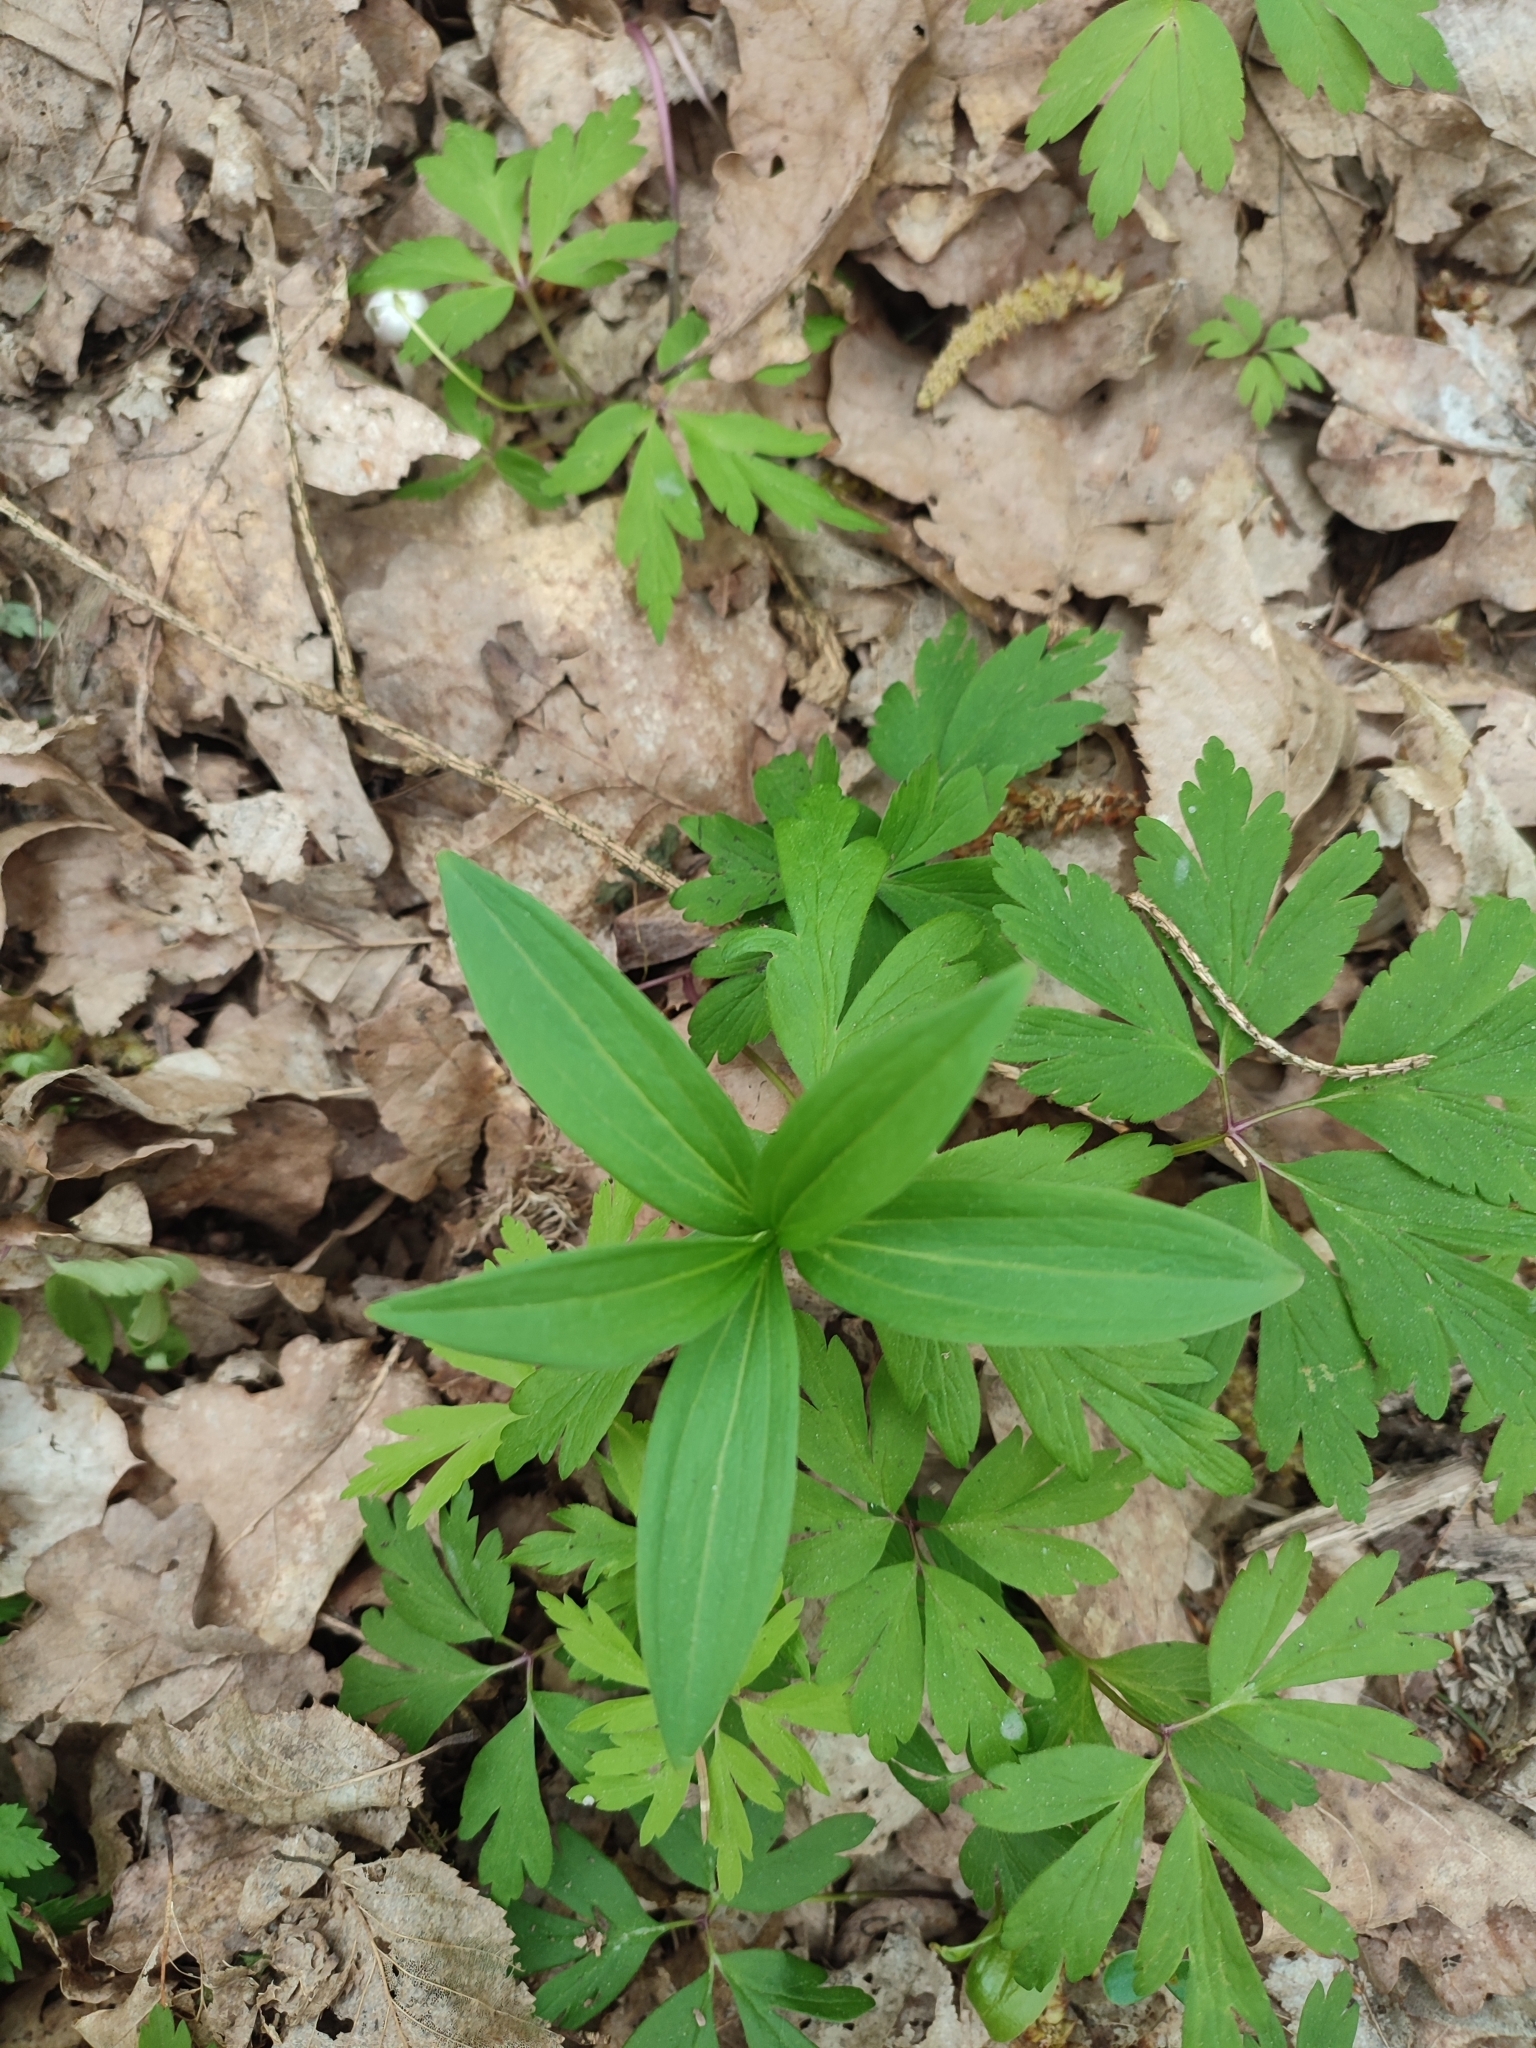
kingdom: Plantae
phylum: Tracheophyta
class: Liliopsida
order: Liliales
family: Liliaceae
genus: Lilium
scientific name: Lilium martagon
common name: Martagon lily
